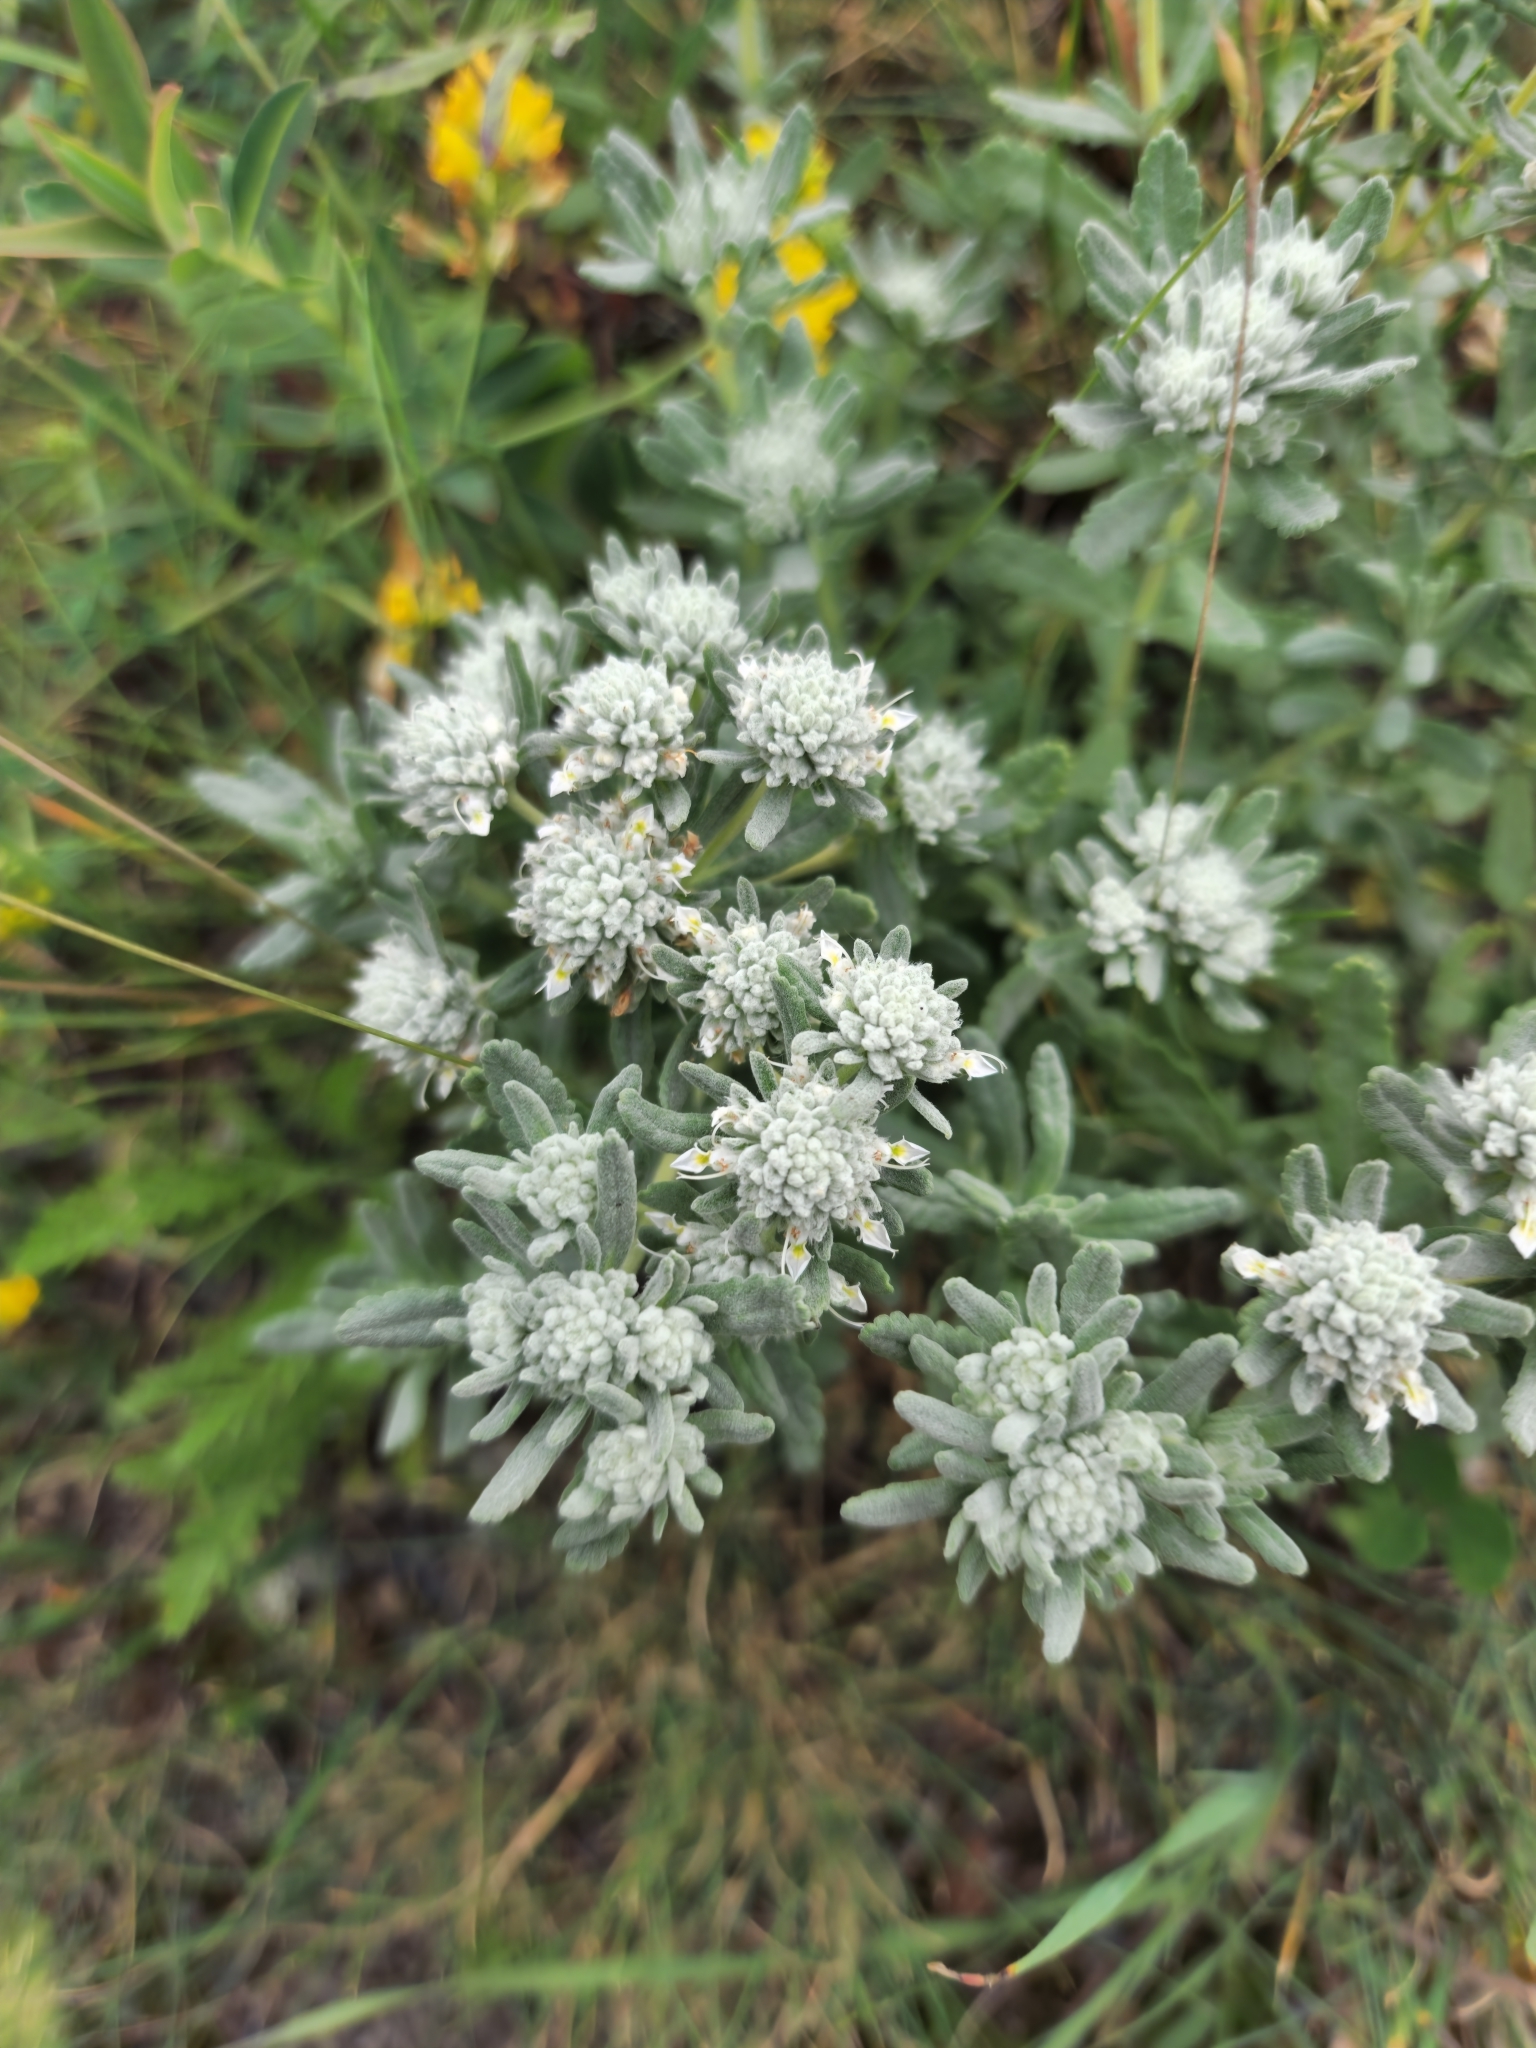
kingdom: Plantae
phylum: Tracheophyta
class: Magnoliopsida
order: Lamiales
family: Lamiaceae
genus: Teucrium
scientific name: Teucrium polium
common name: Poley
